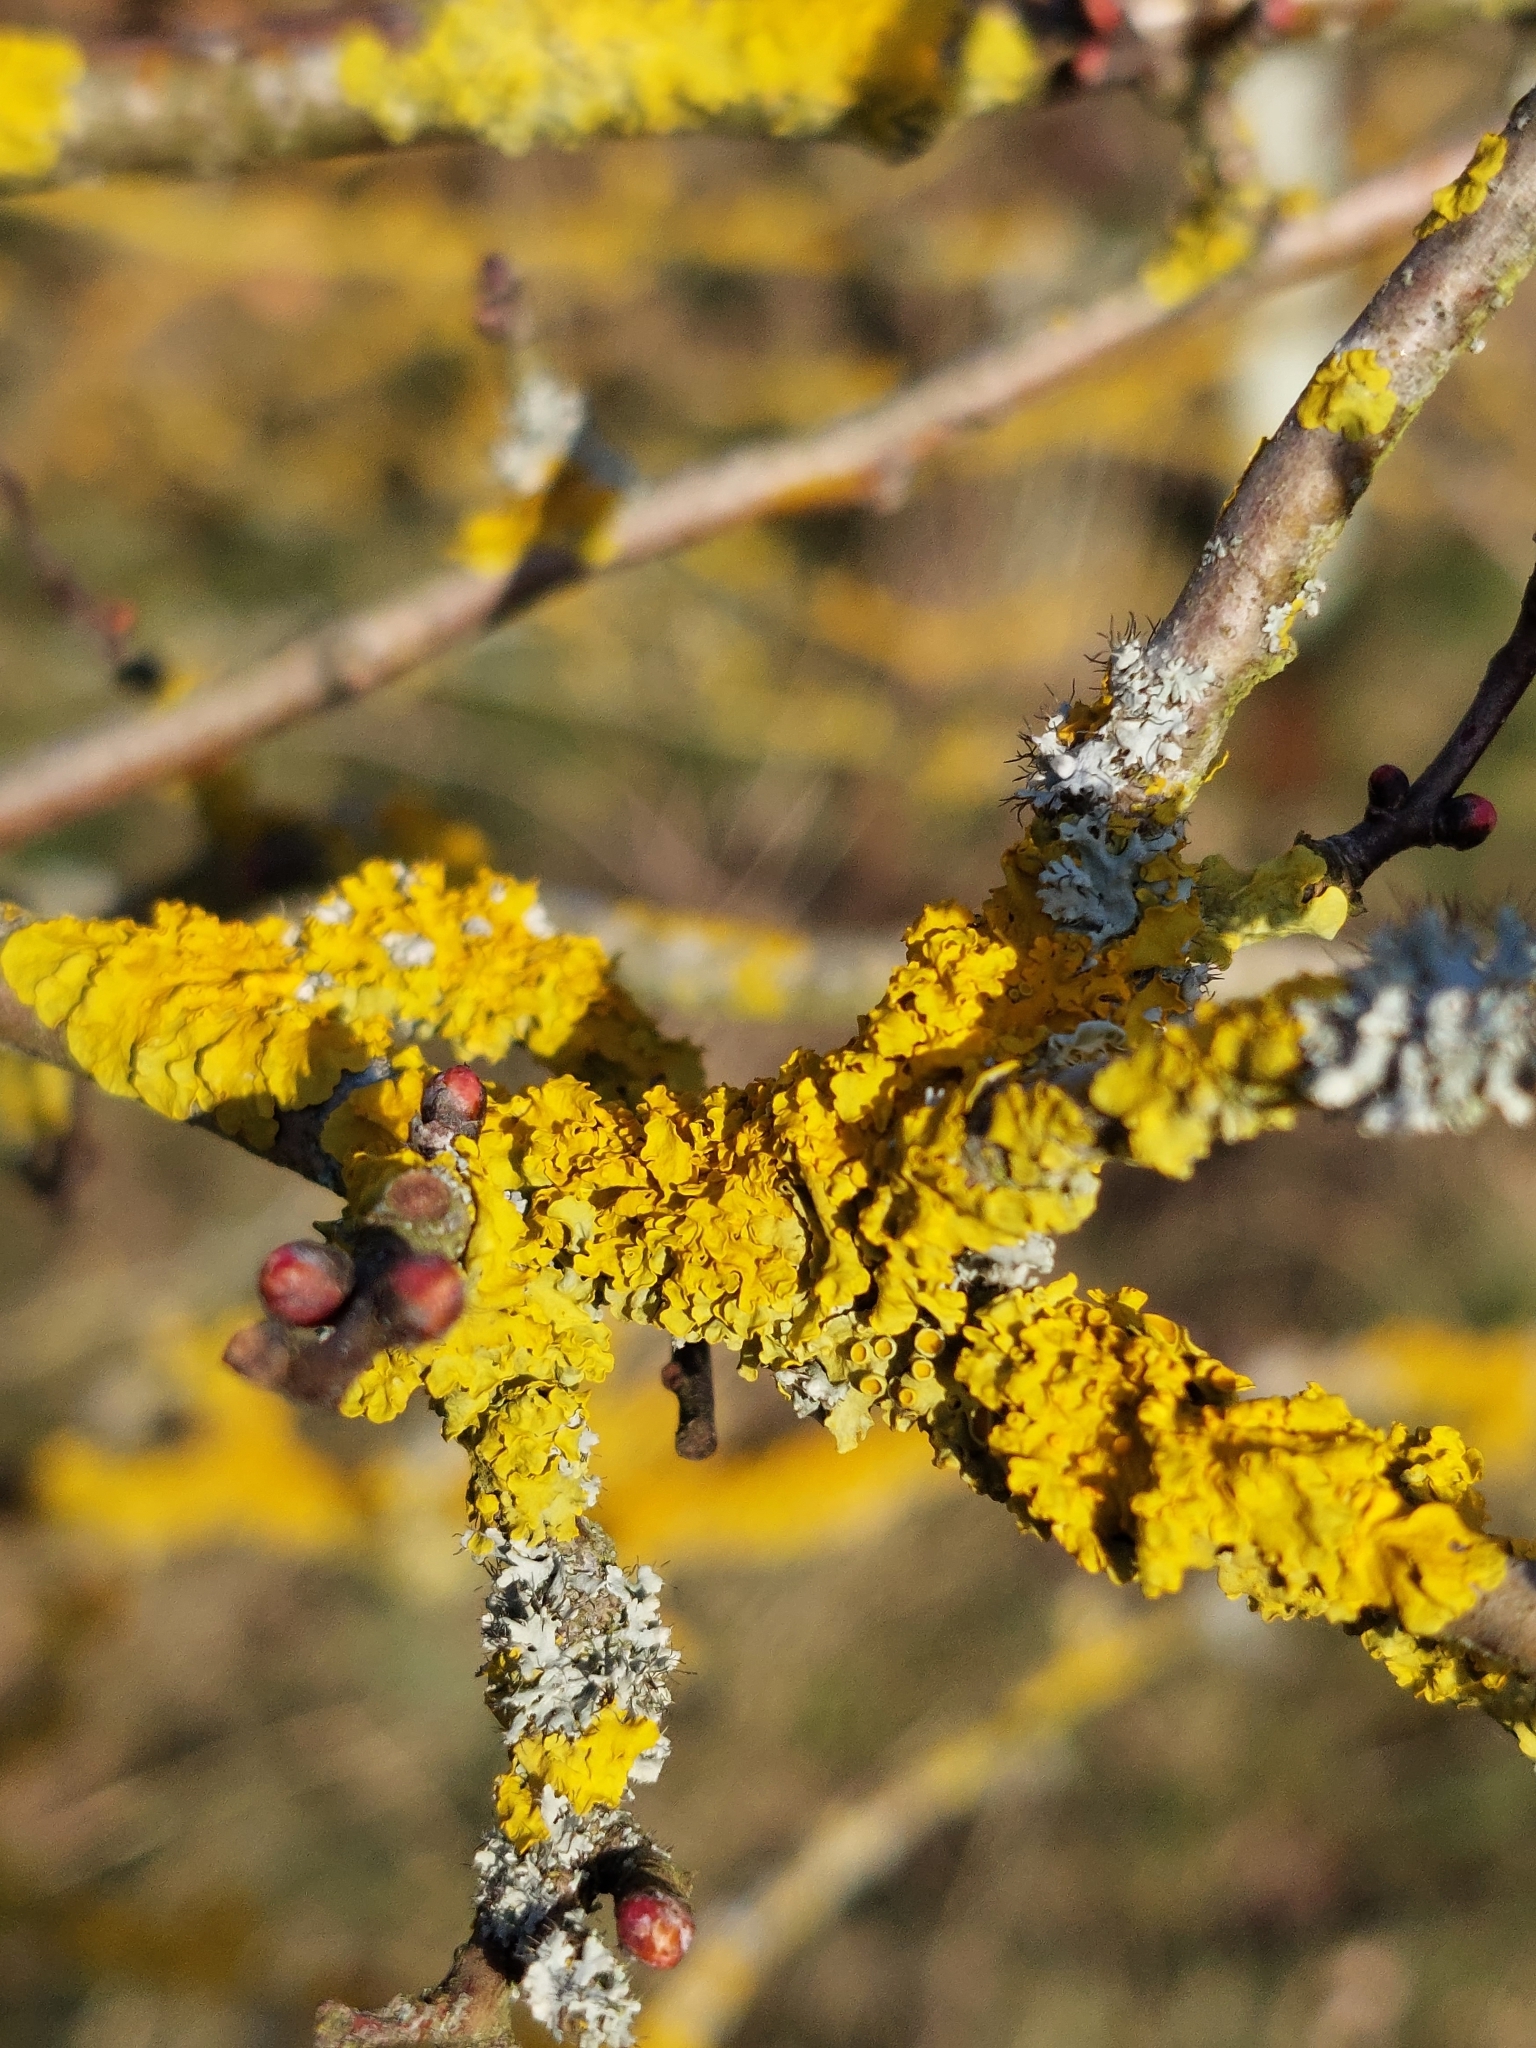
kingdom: Fungi
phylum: Ascomycota
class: Lecanoromycetes
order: Teloschistales
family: Teloschistaceae
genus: Xanthoria
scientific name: Xanthoria parietina
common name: Common orange lichen
